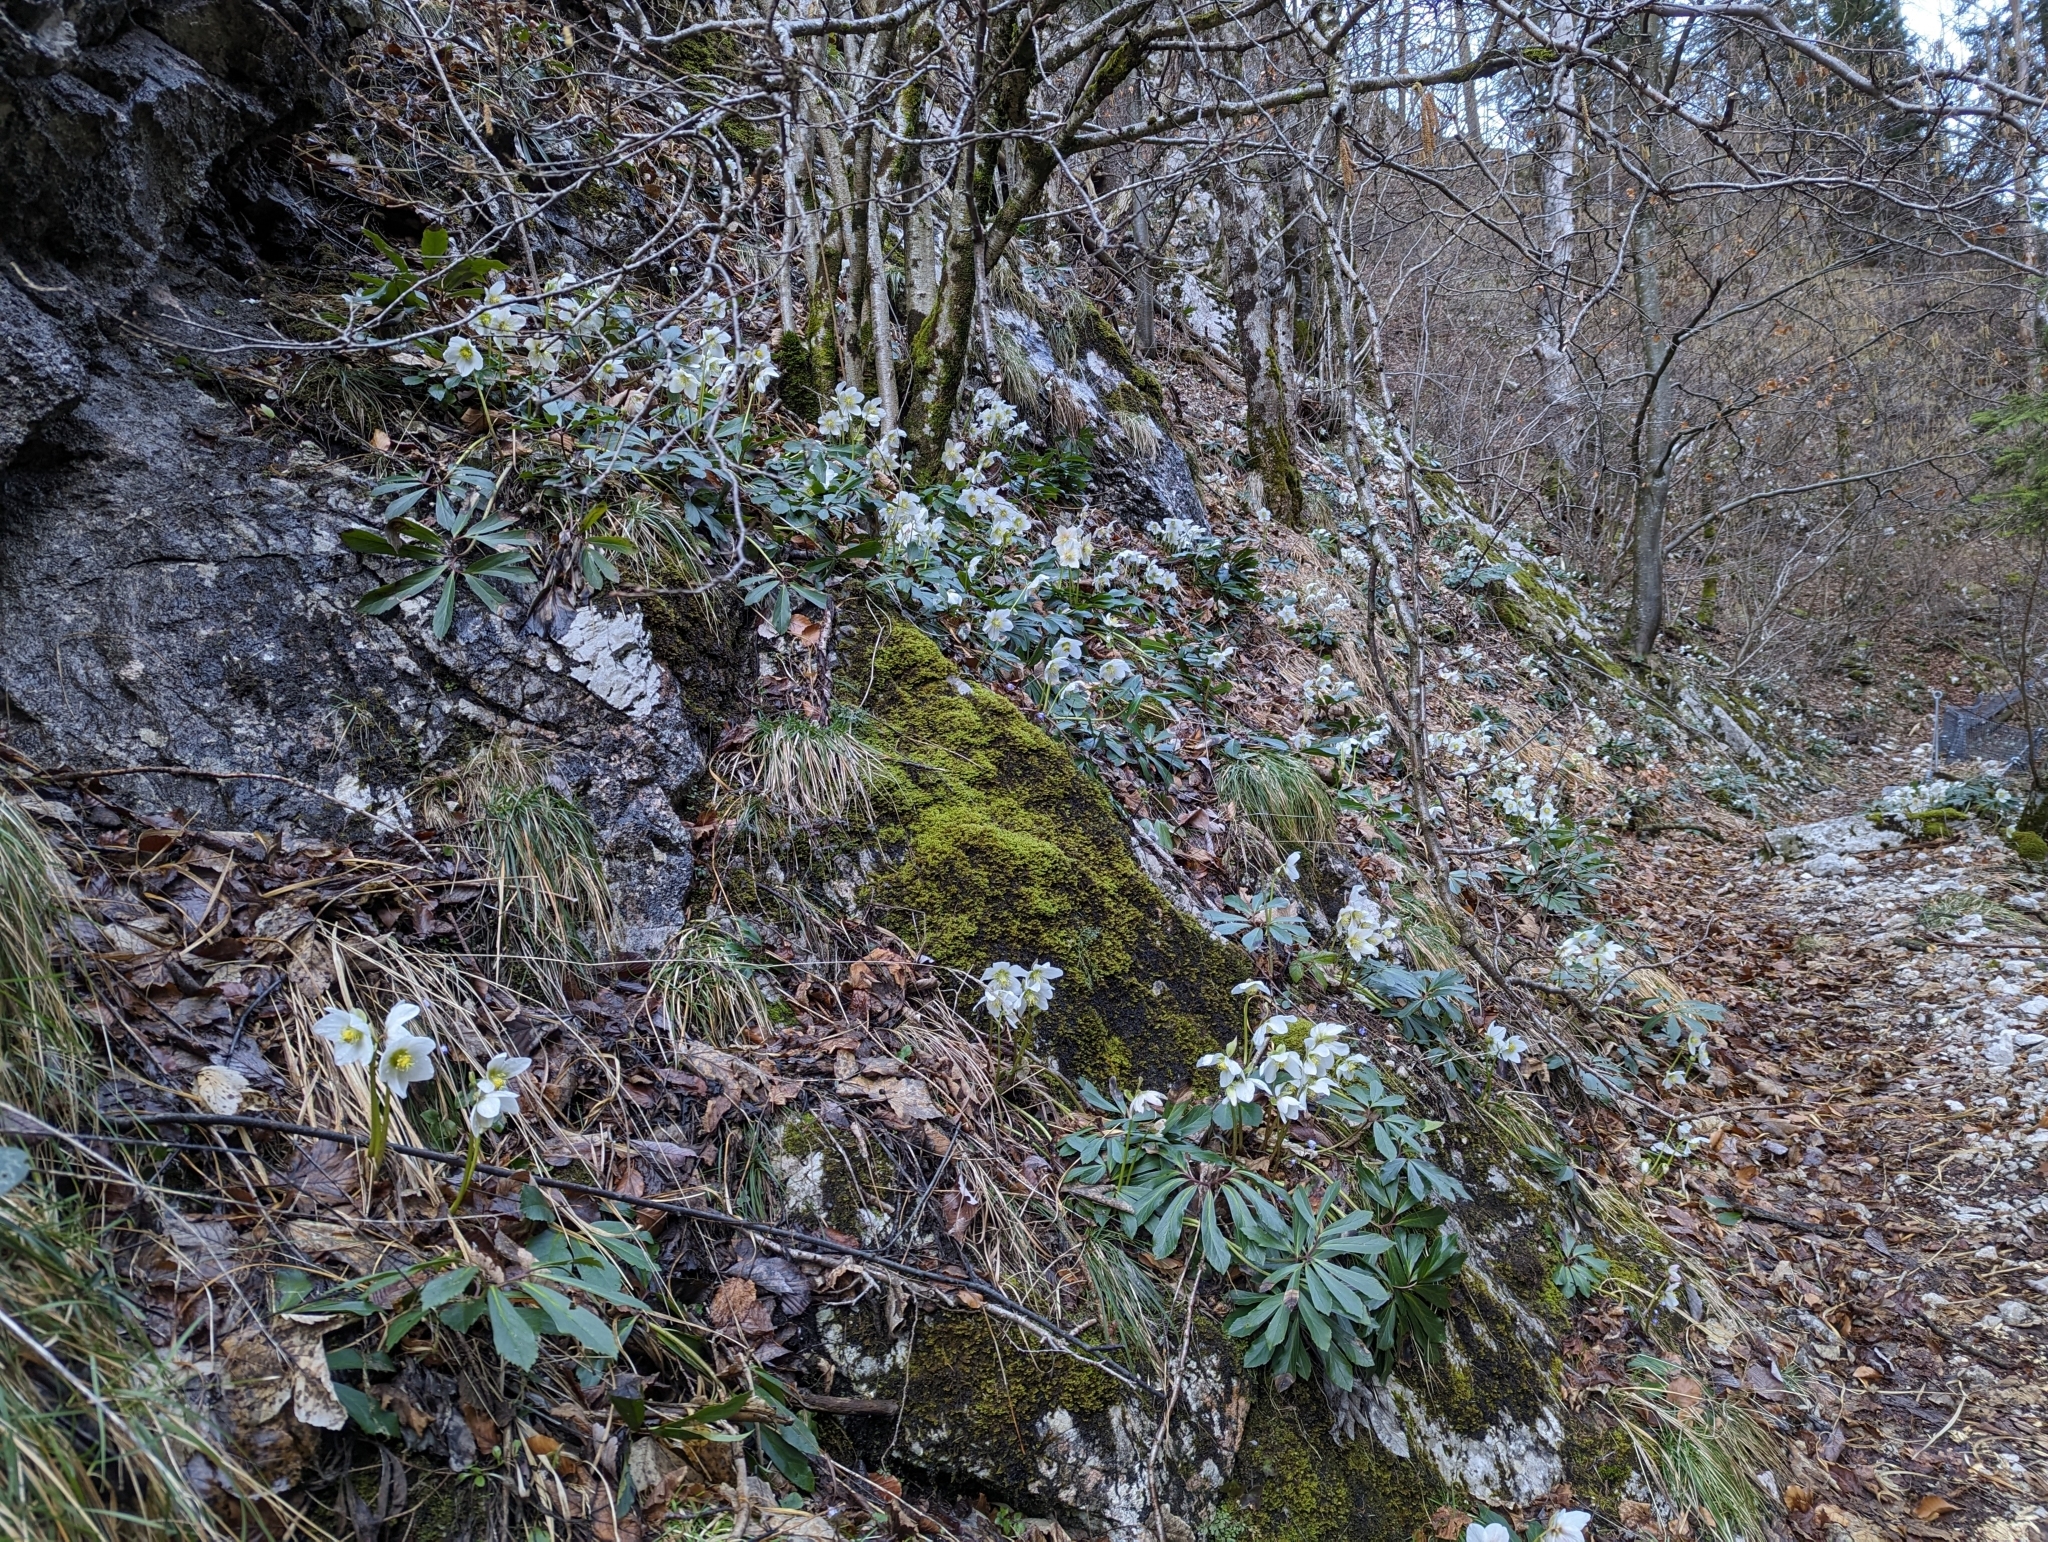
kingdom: Plantae
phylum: Tracheophyta
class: Magnoliopsida
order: Ranunculales
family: Ranunculaceae
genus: Helleborus
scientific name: Helleborus niger
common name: Black hellebore
